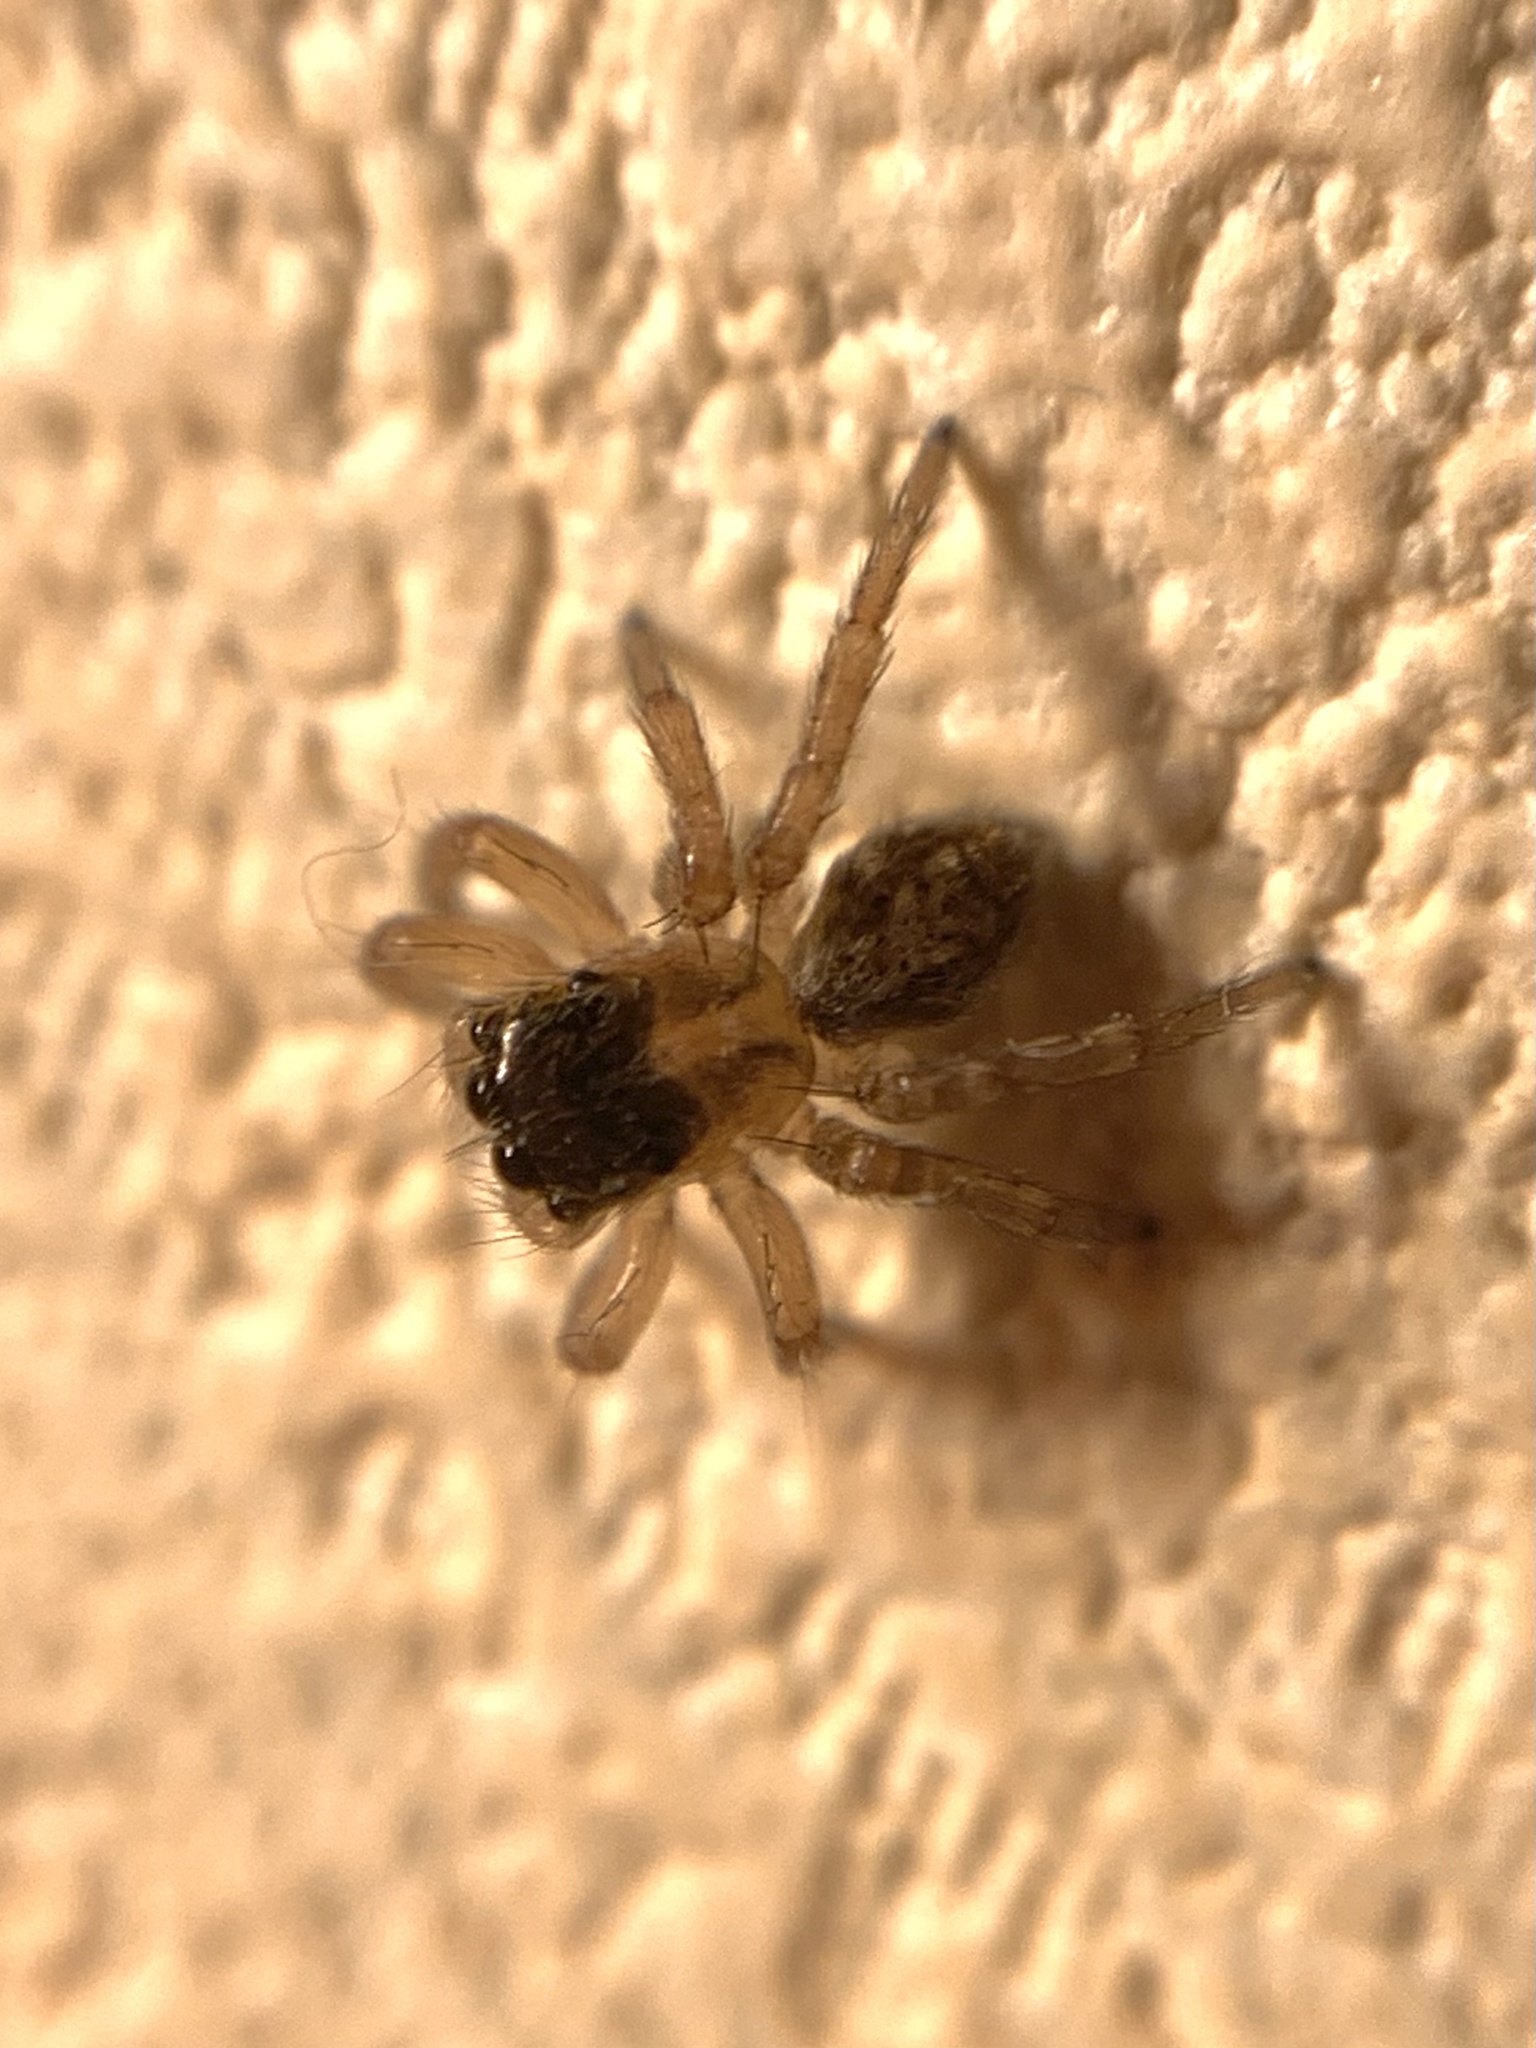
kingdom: Animalia
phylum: Arthropoda
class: Arachnida
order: Araneae
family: Salticidae
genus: Saitis
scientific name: Saitis barbipes
